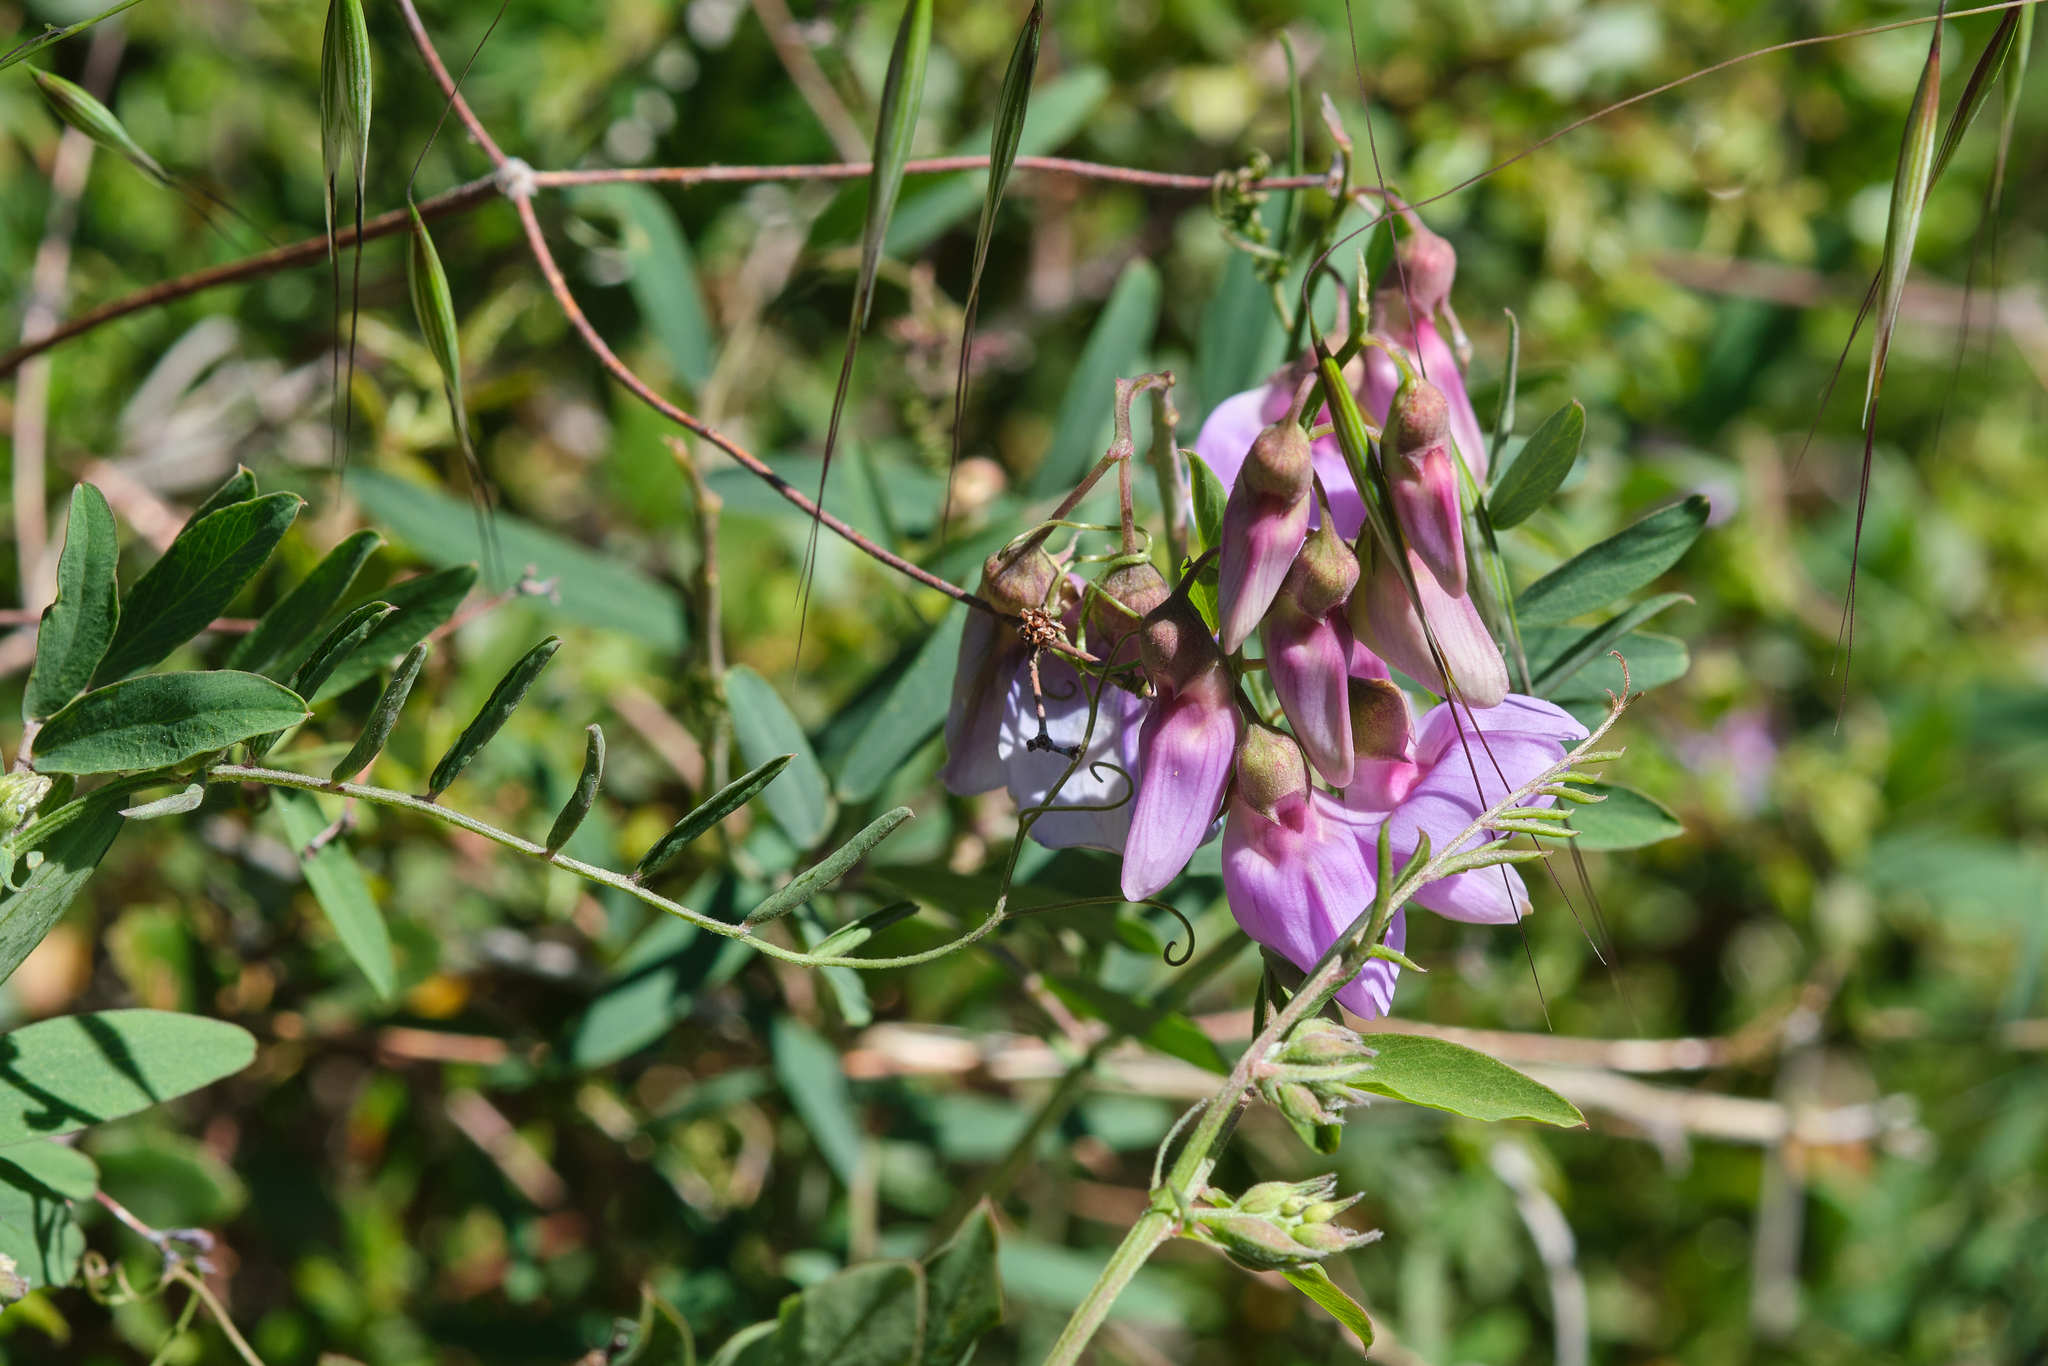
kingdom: Plantae
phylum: Tracheophyta
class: Magnoliopsida
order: Fabales
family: Fabaceae
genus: Lathyrus
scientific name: Lathyrus vestitus
